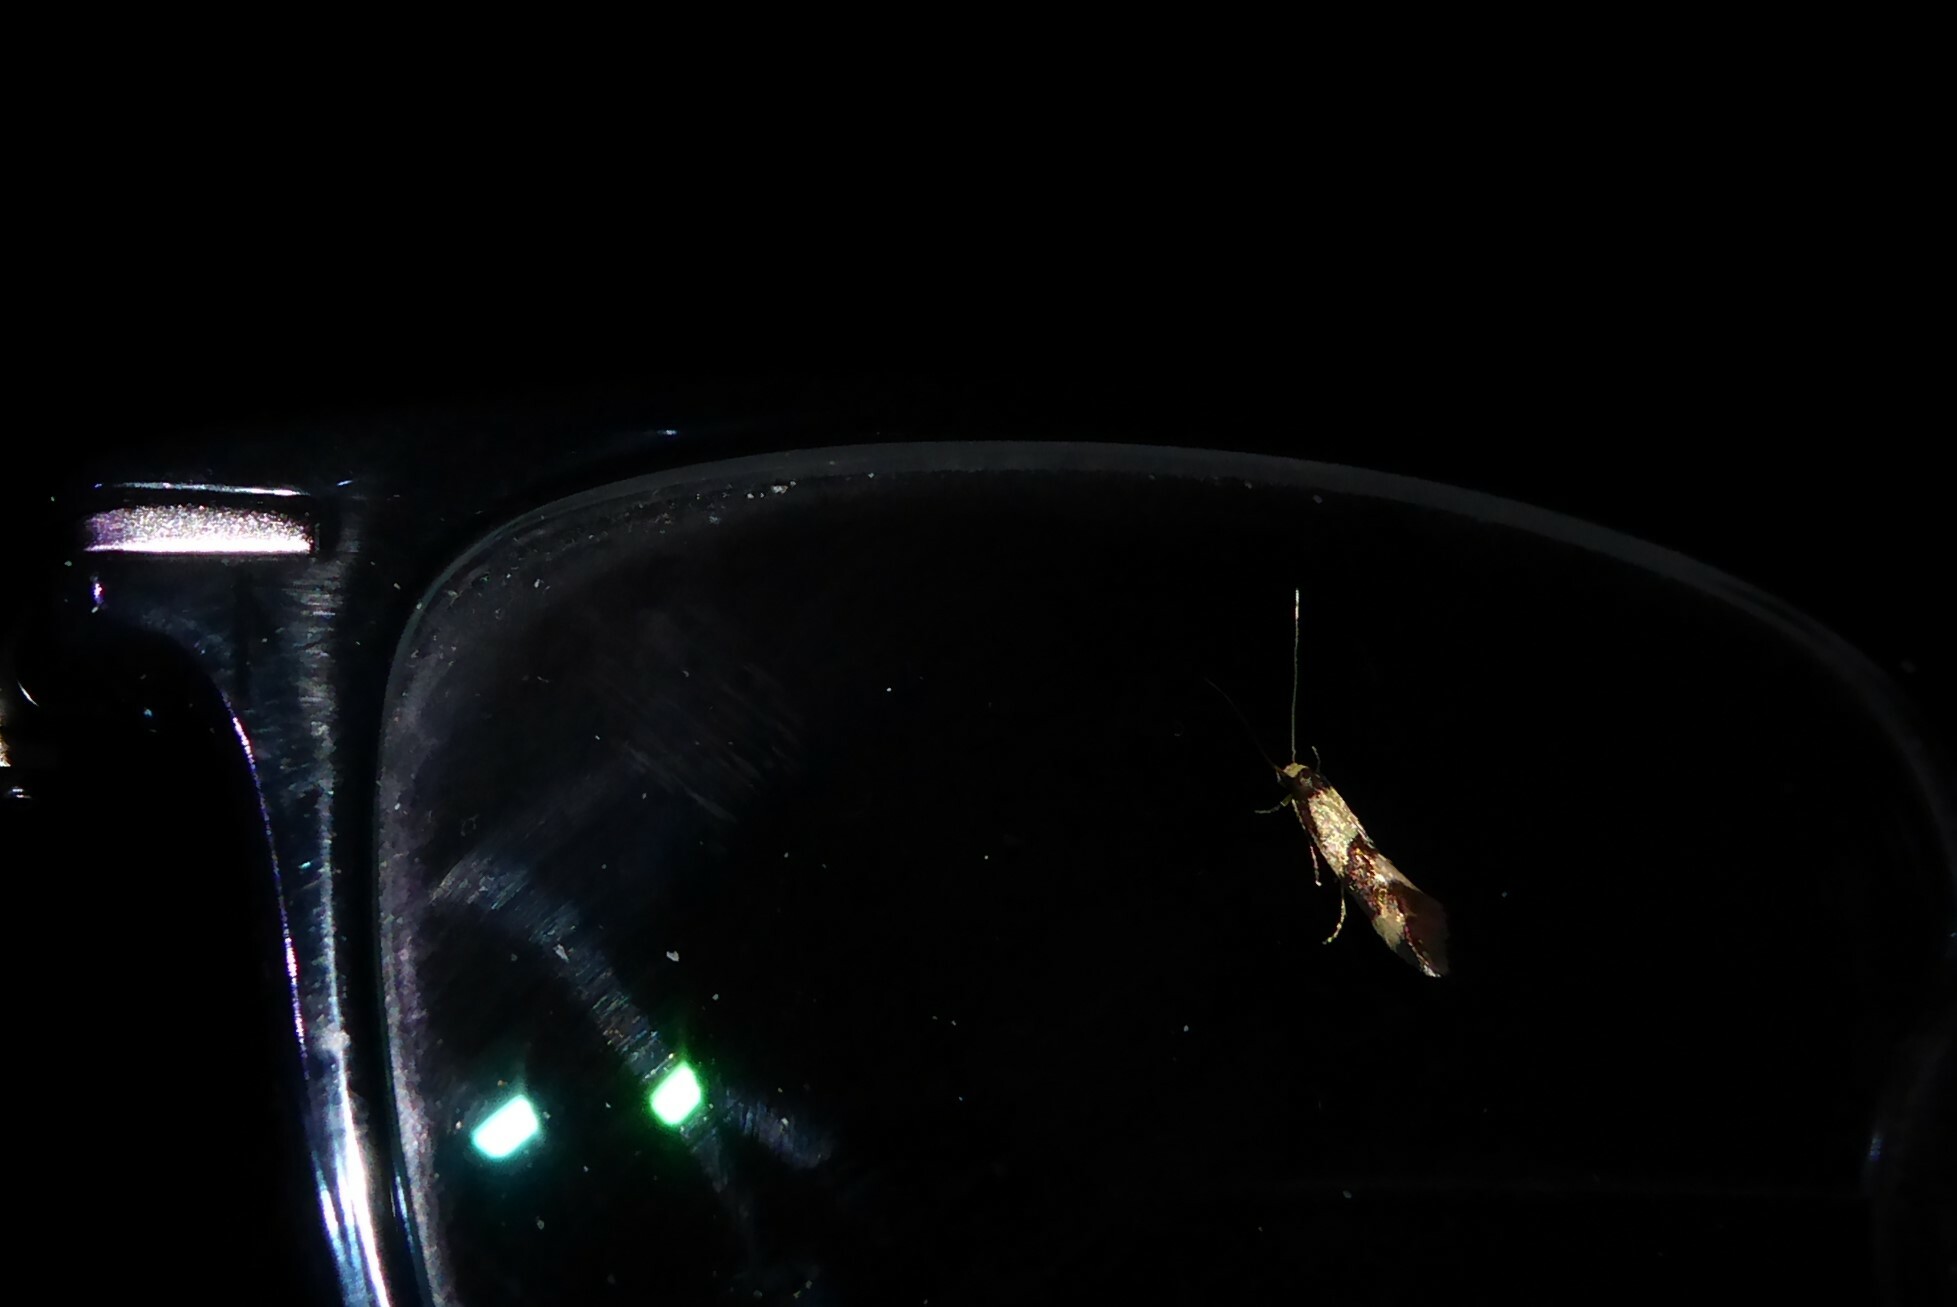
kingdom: Animalia
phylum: Arthropoda
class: Insecta
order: Lepidoptera
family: Tineidae
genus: Opogona
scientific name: Opogona comptella
